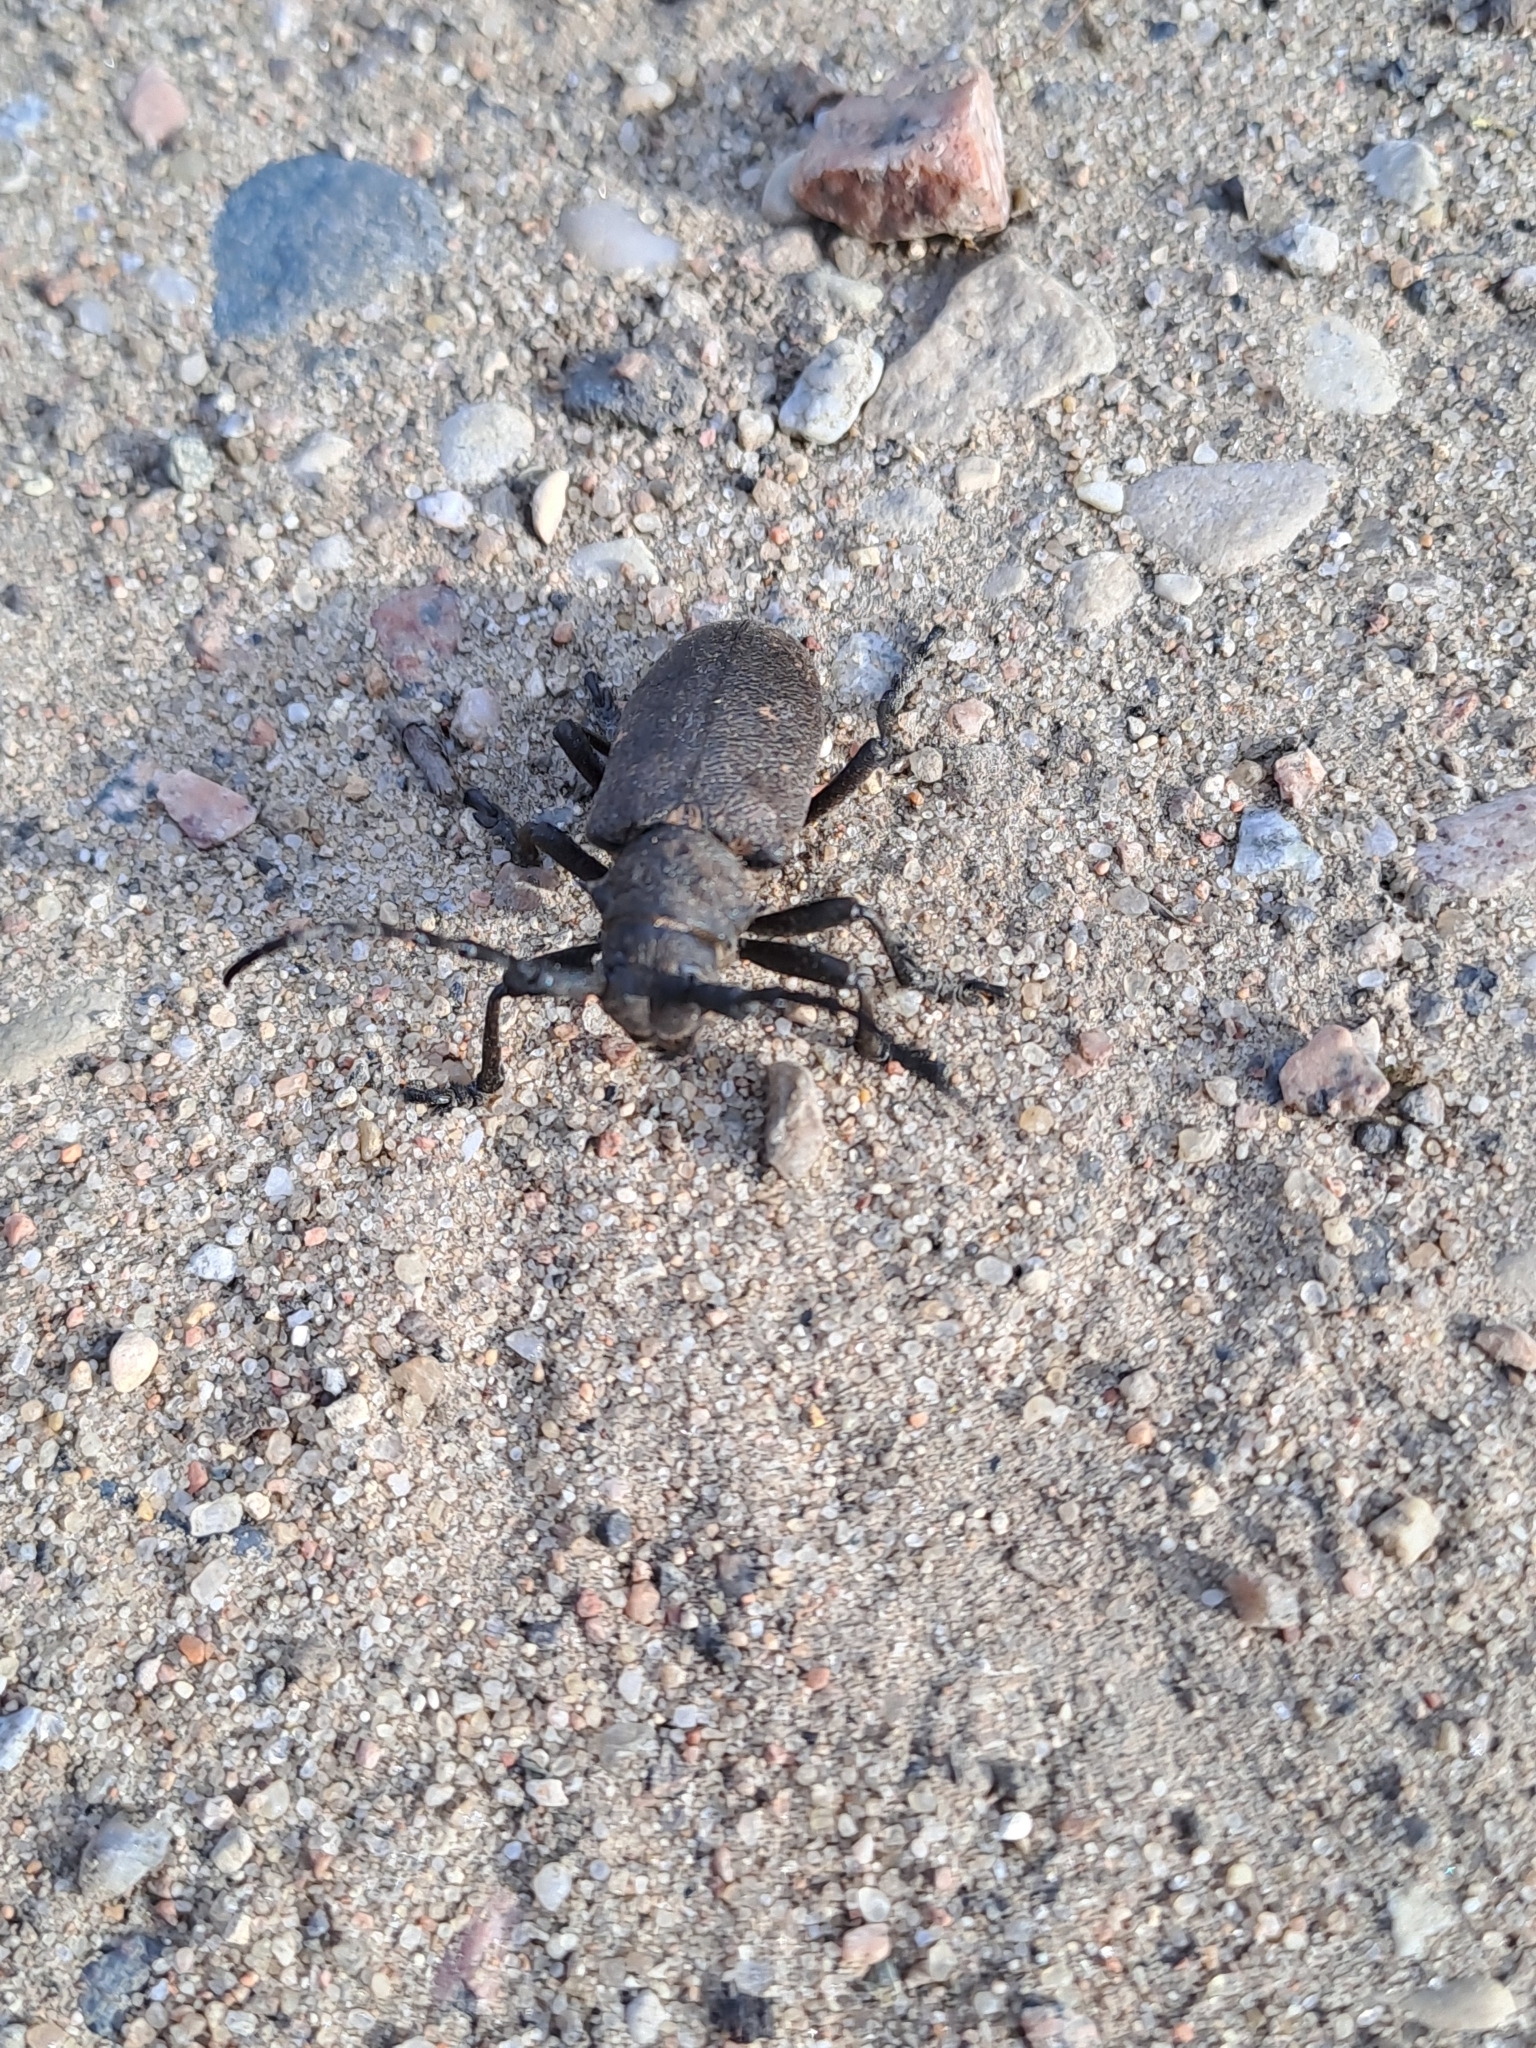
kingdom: Animalia
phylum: Arthropoda
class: Insecta
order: Coleoptera
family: Cerambycidae
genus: Lamia
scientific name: Lamia textor
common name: Weaver beetle
